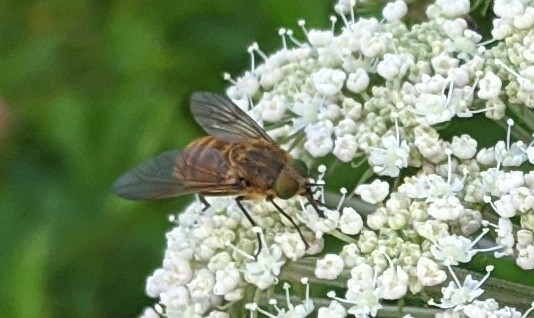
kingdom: Animalia
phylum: Arthropoda
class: Insecta
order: Diptera
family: Tabanidae
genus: Stonemyia
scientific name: Stonemyia tranquilla
